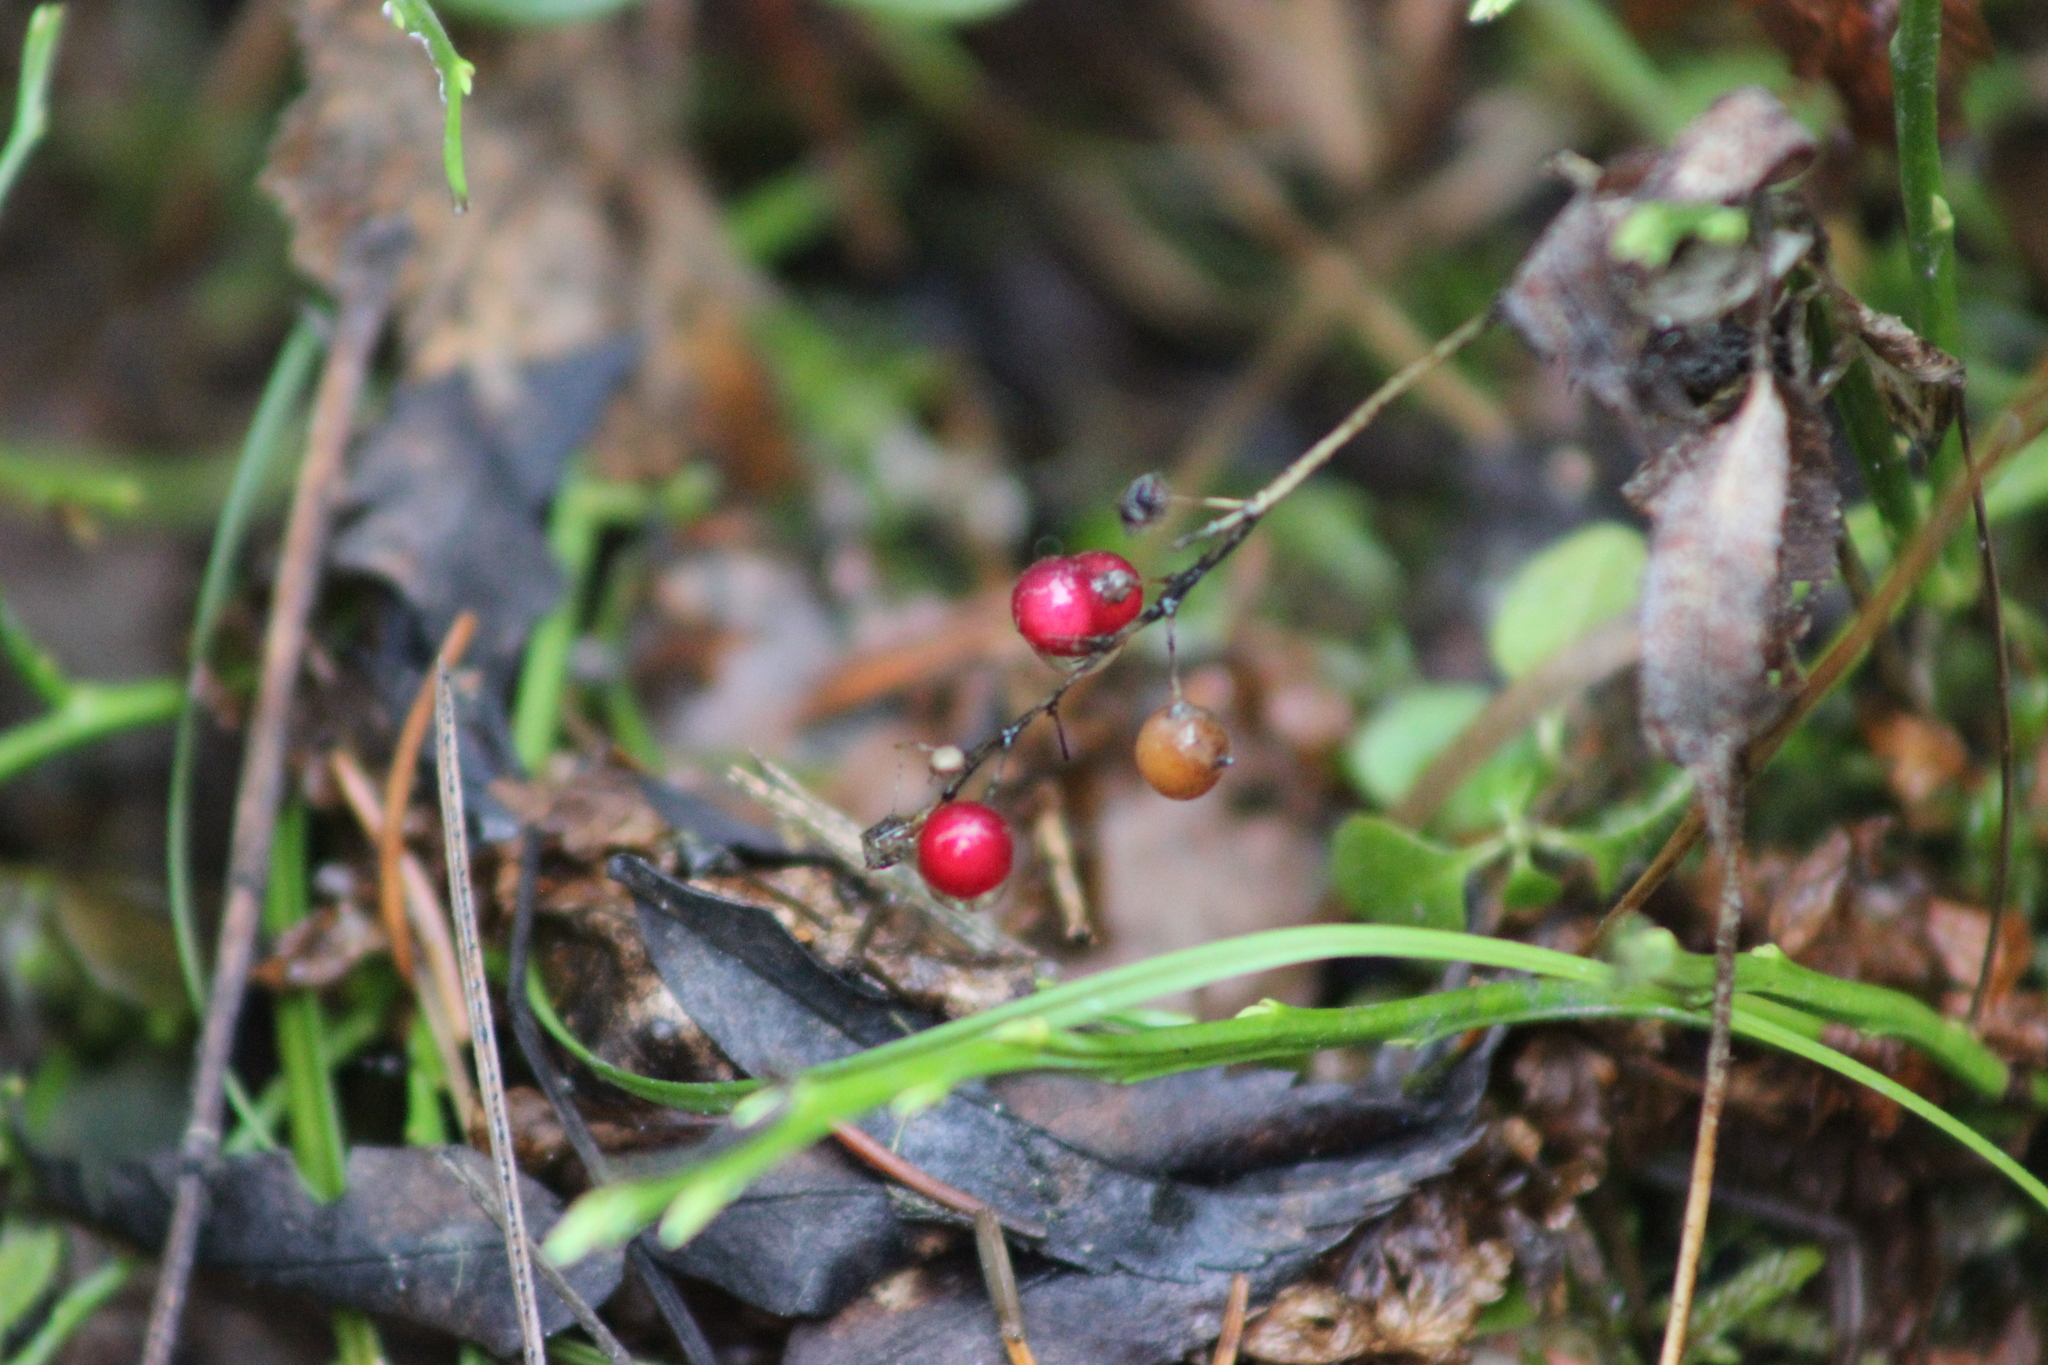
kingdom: Plantae
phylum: Tracheophyta
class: Liliopsida
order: Asparagales
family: Asparagaceae
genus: Maianthemum
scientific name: Maianthemum bifolium
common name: May lily
